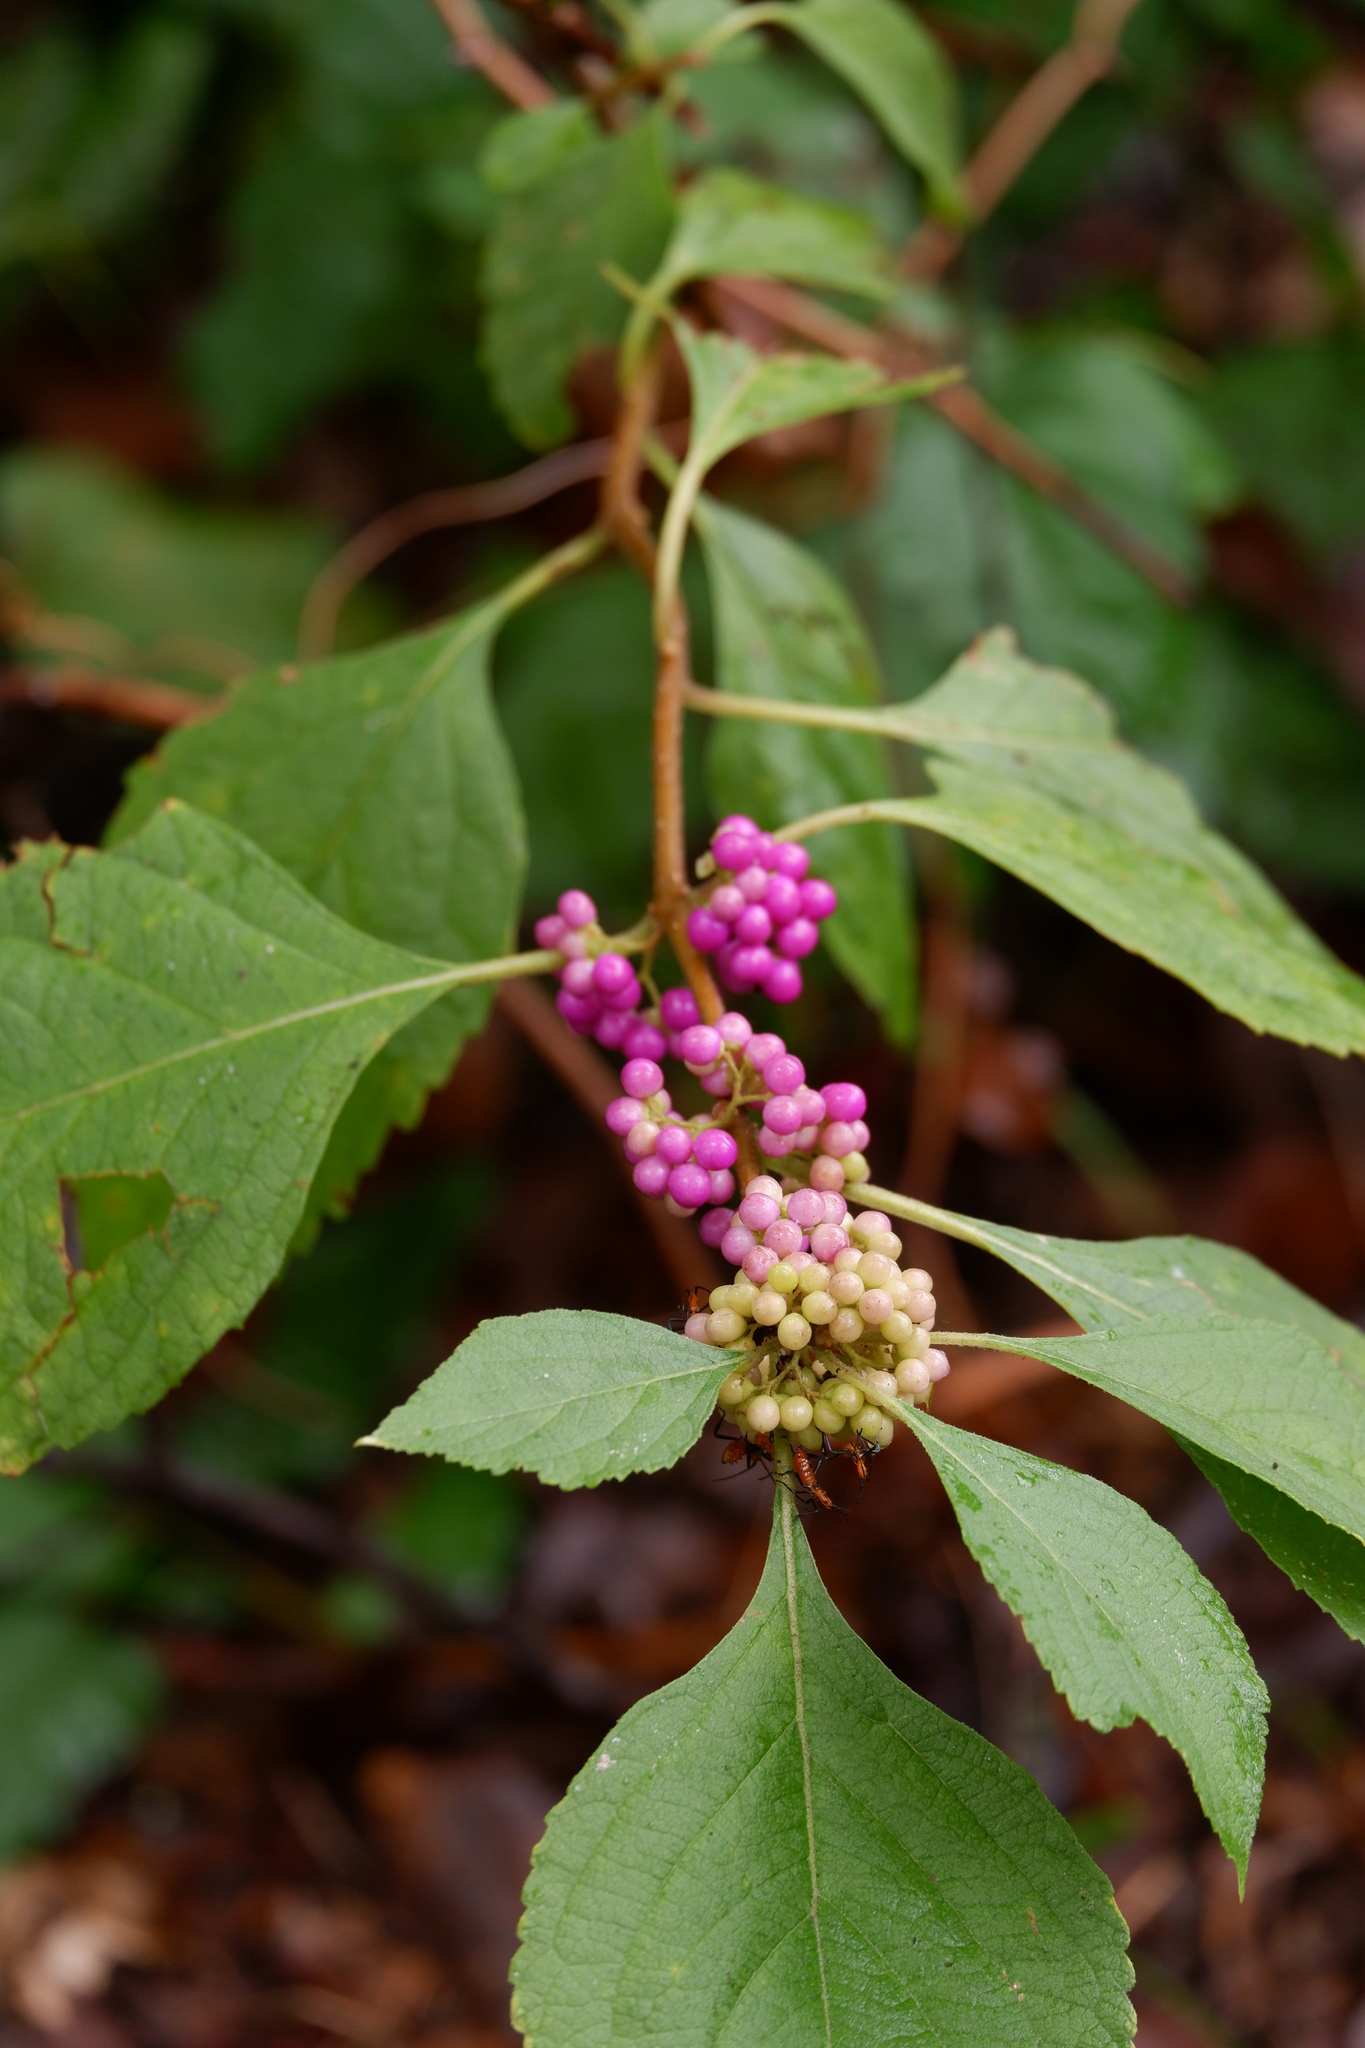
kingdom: Plantae
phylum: Tracheophyta
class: Magnoliopsida
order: Lamiales
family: Lamiaceae
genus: Callicarpa
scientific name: Callicarpa americana
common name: American beautyberry
